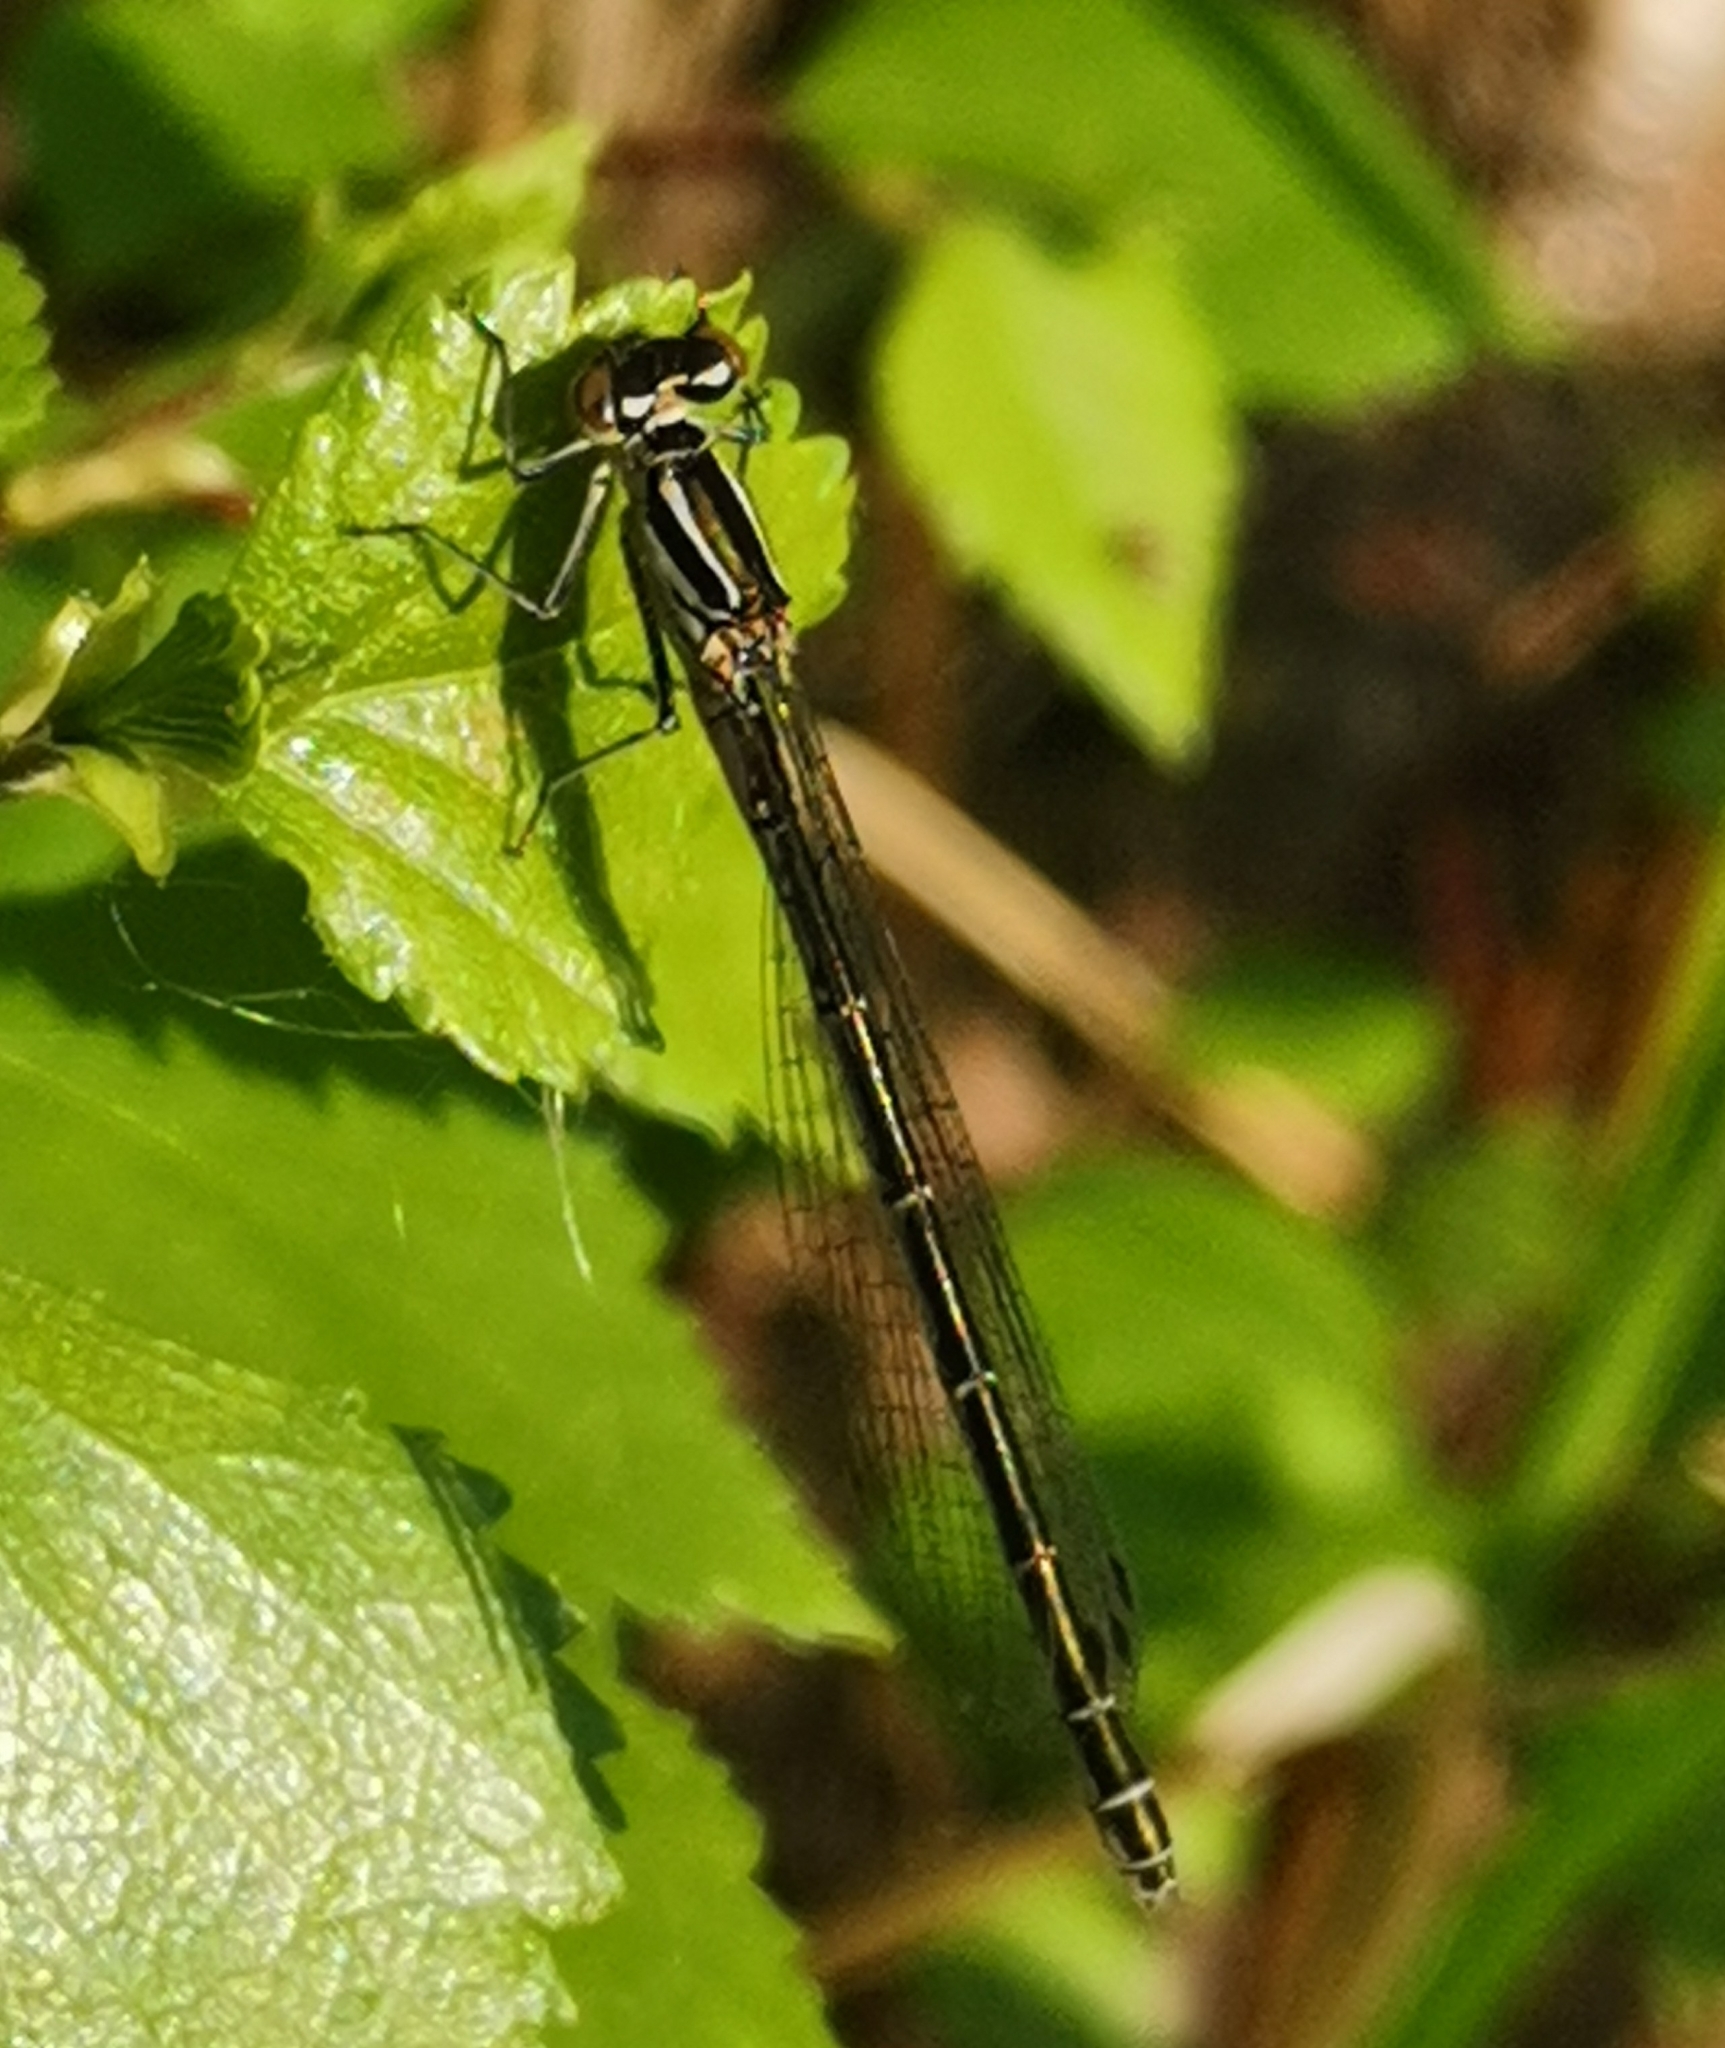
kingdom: Animalia
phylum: Arthropoda
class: Insecta
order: Odonata
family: Coenagrionidae
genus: Coenagrion
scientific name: Coenagrion hastulatum
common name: Spearhead bluet
